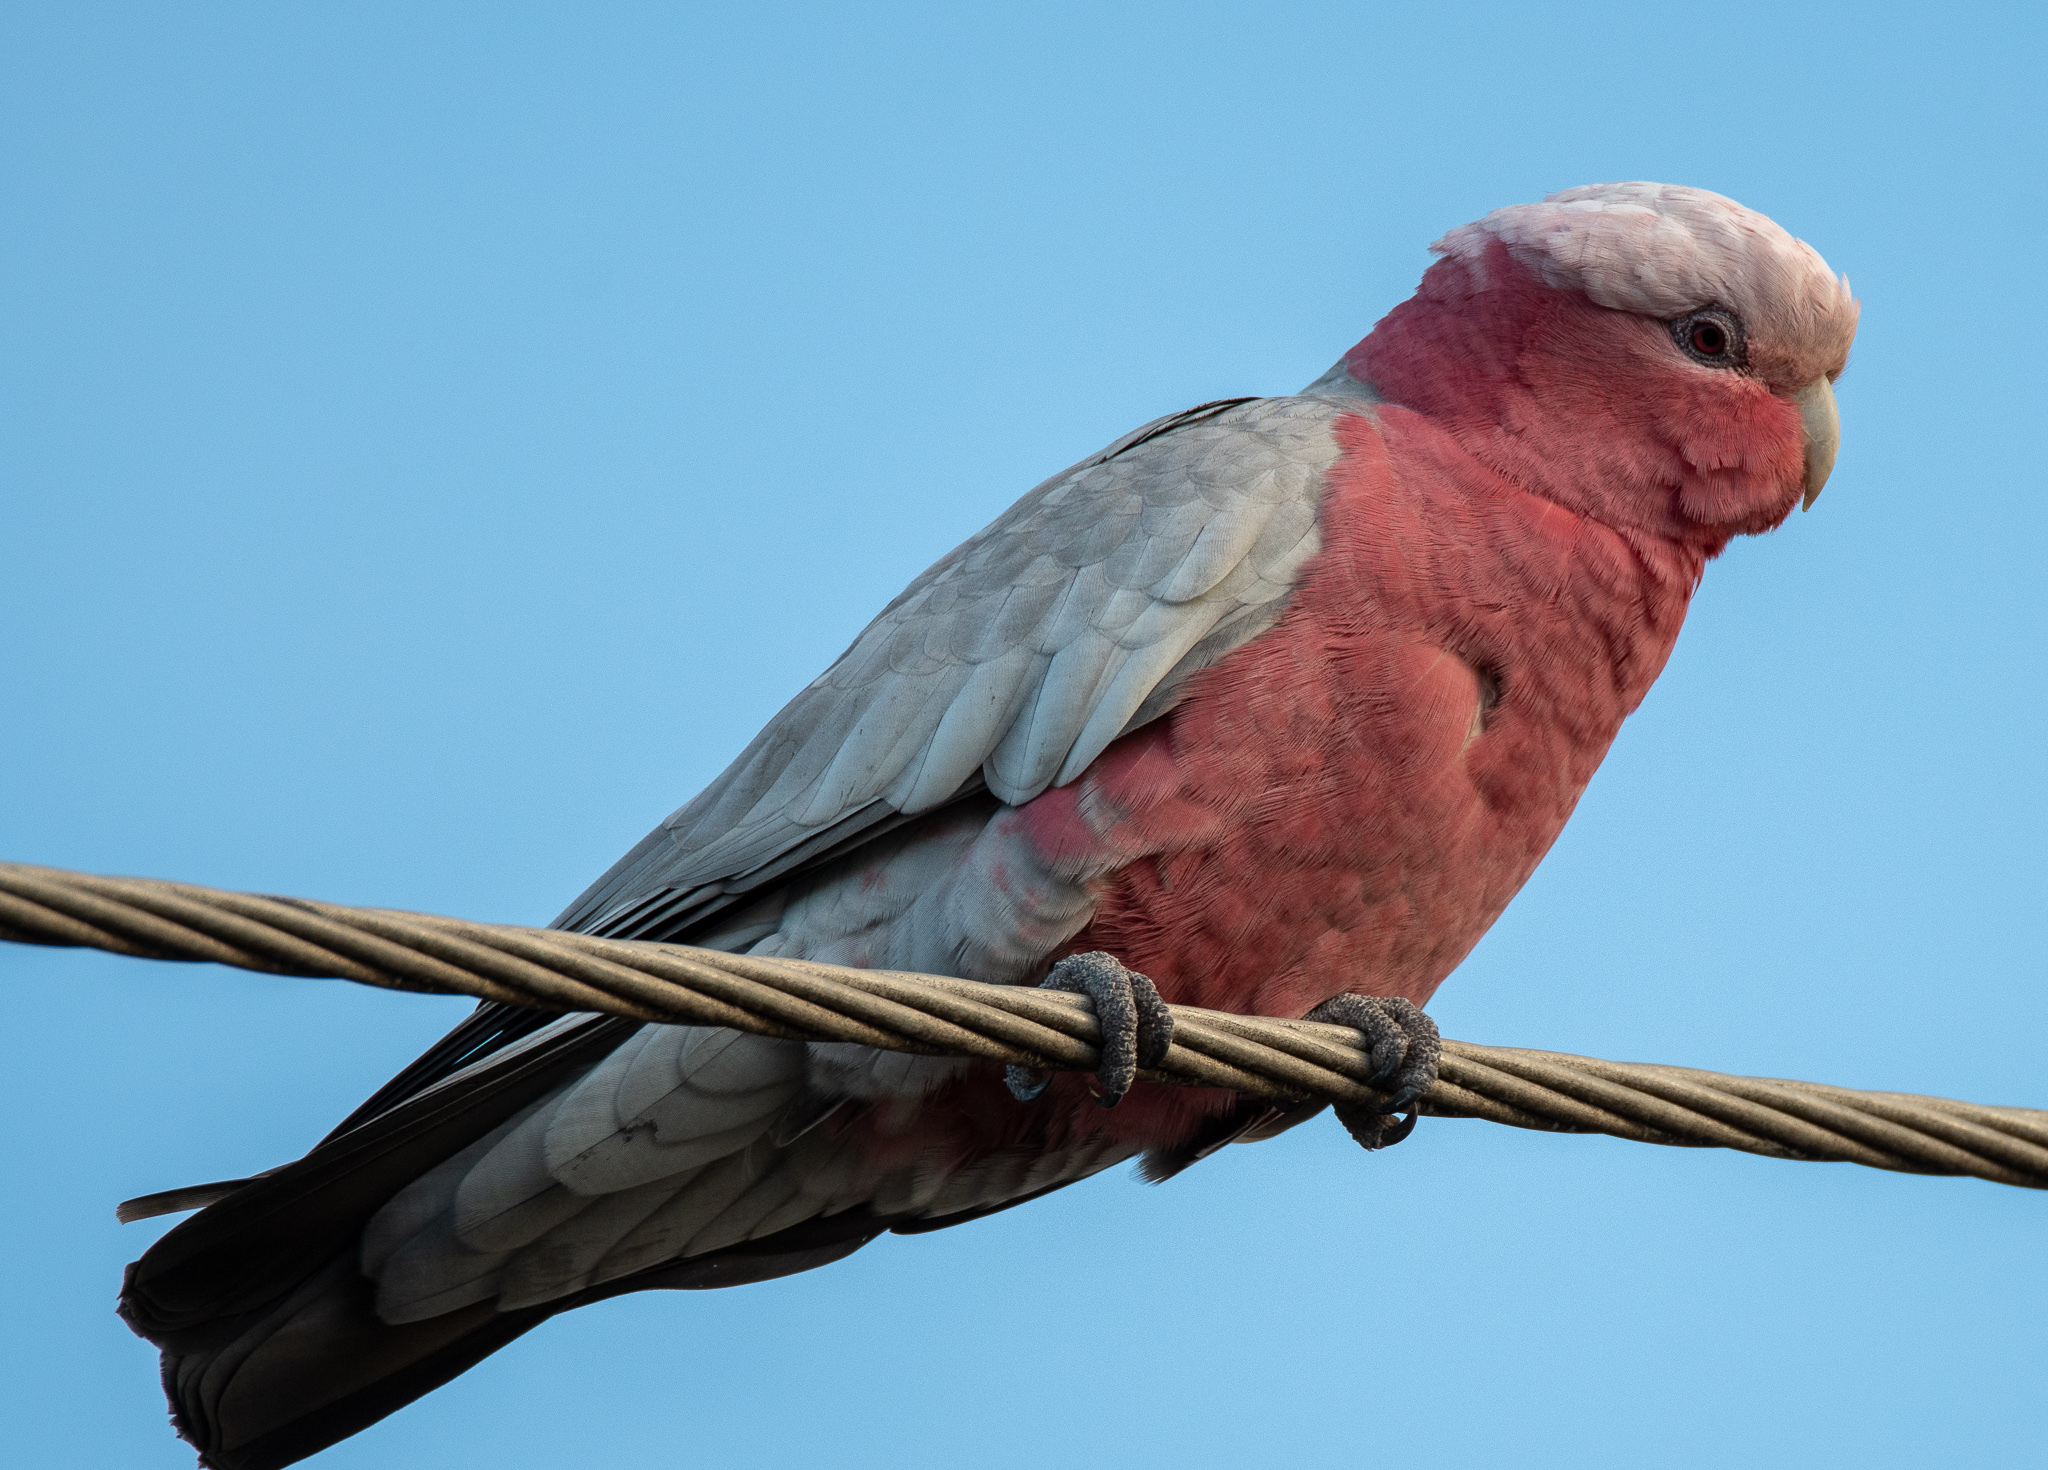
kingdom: Animalia
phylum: Chordata
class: Aves
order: Psittaciformes
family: Psittacidae
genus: Eolophus
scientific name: Eolophus roseicapilla
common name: Galah
